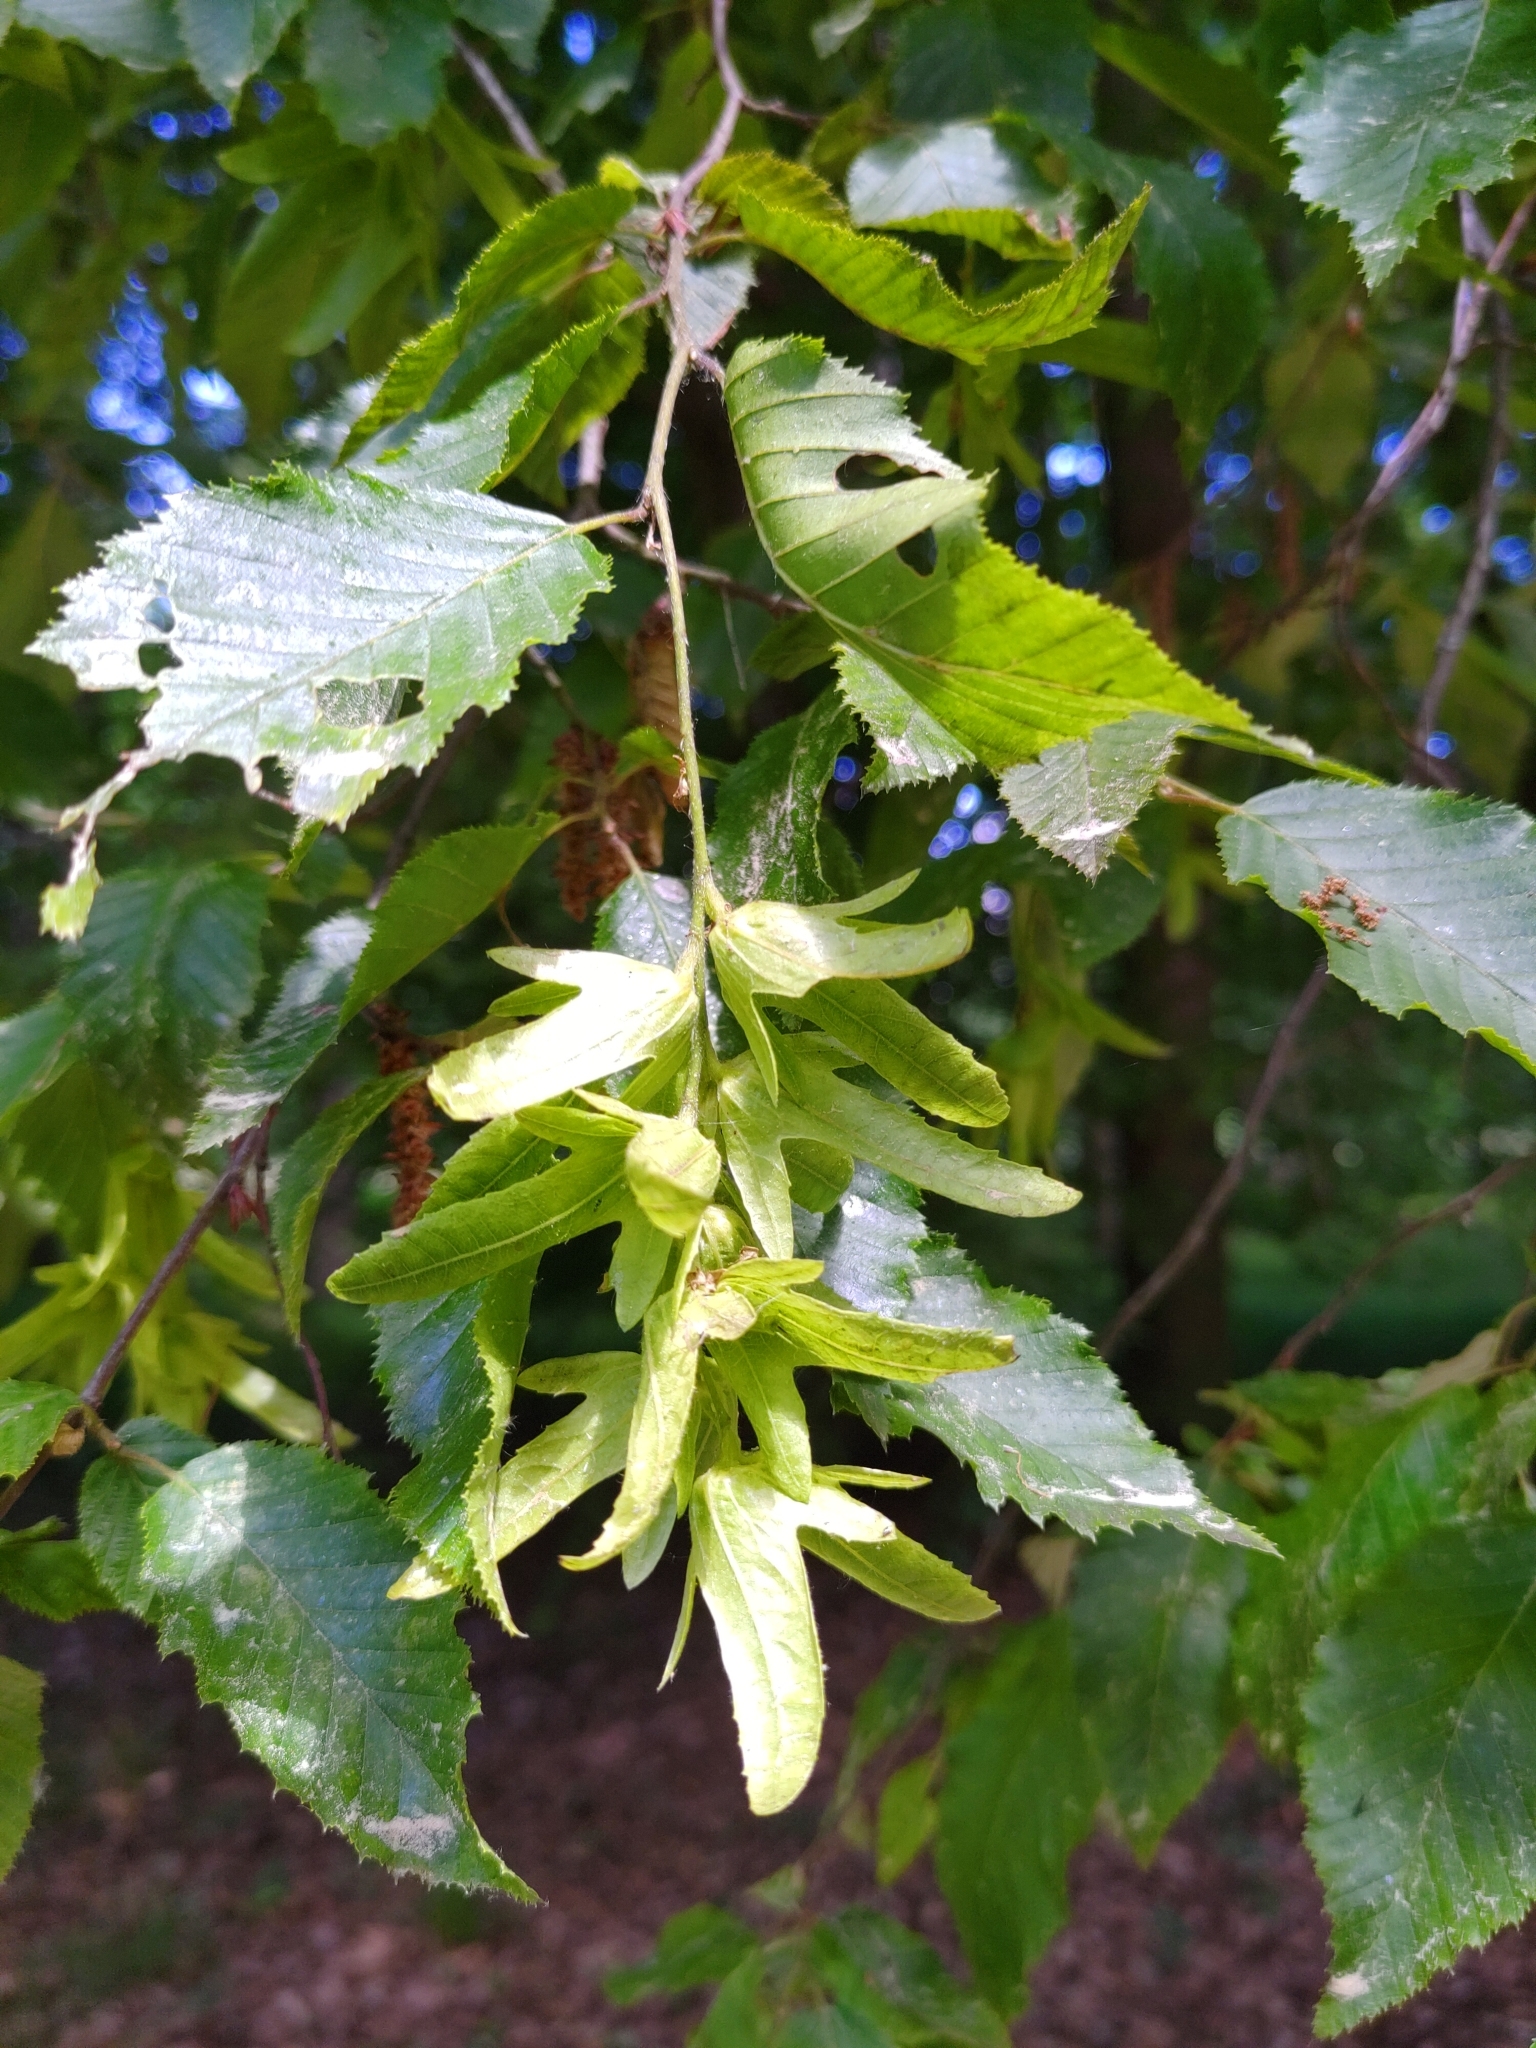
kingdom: Plantae
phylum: Tracheophyta
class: Magnoliopsida
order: Fagales
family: Betulaceae
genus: Carpinus
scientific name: Carpinus betulus
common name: Hornbeam
